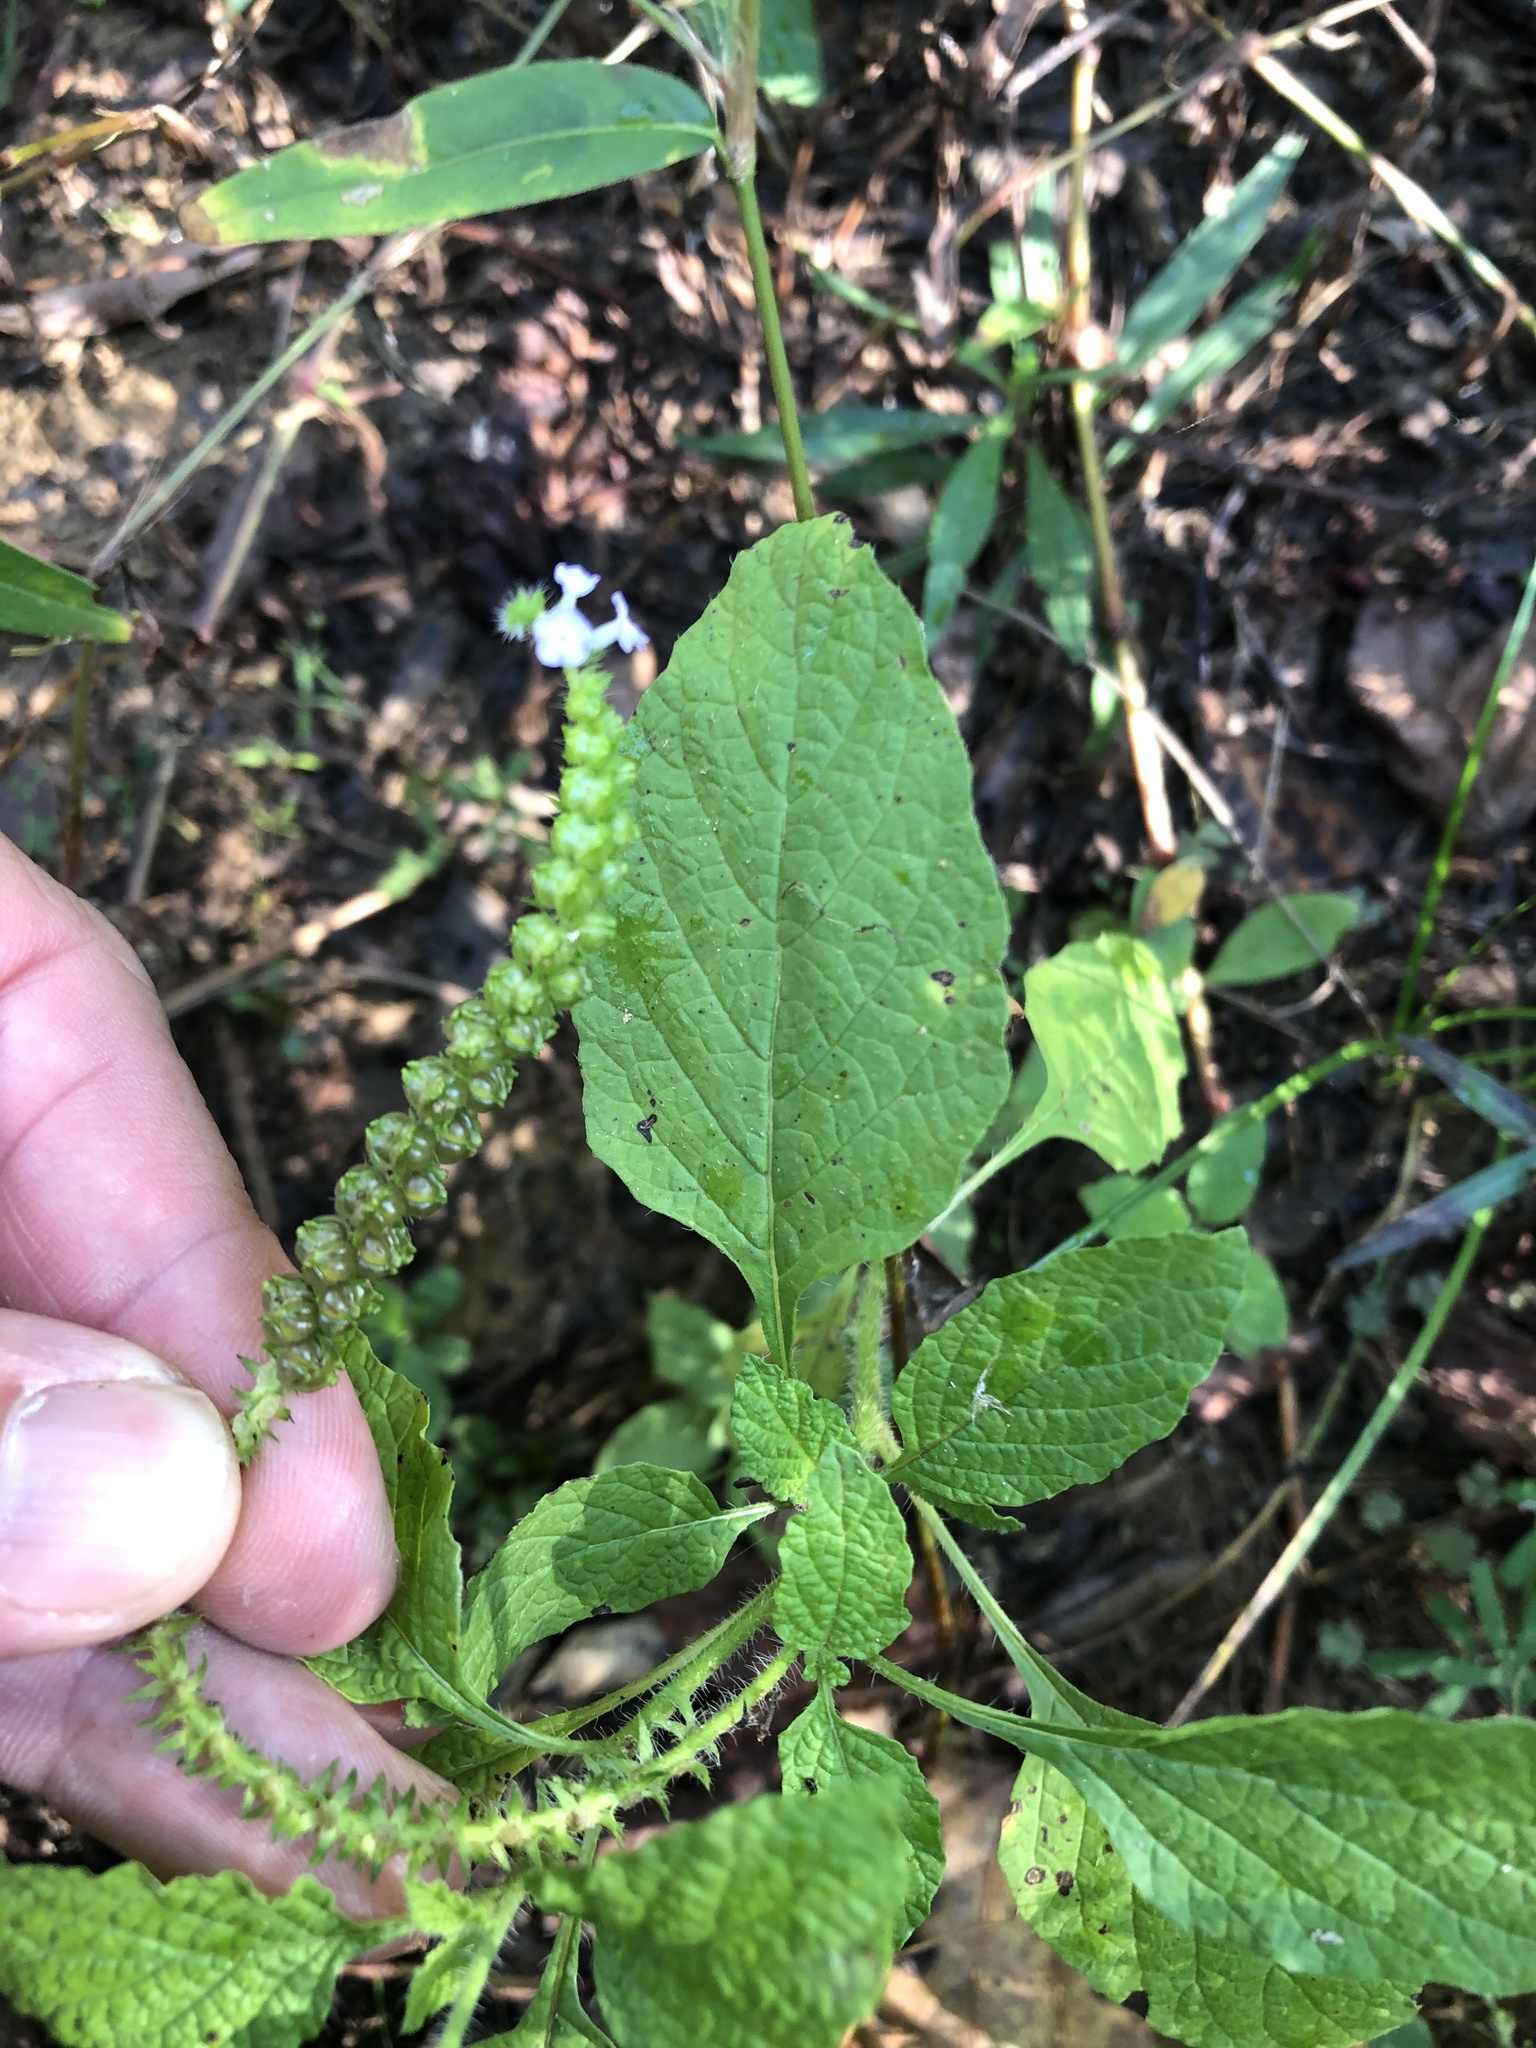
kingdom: Plantae
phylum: Tracheophyta
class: Magnoliopsida
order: Boraginales
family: Heliotropiaceae
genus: Heliotropium
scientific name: Heliotropium indicum
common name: Indian heliotrope
